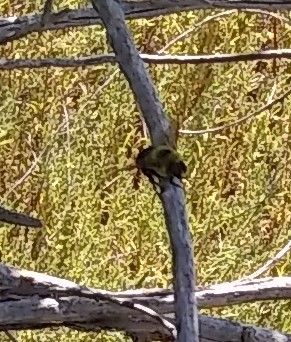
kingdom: Animalia
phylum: Arthropoda
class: Insecta
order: Hymenoptera
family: Apidae
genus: Bombus
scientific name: Bombus griseocollis
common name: Brown-belted bumble bee
